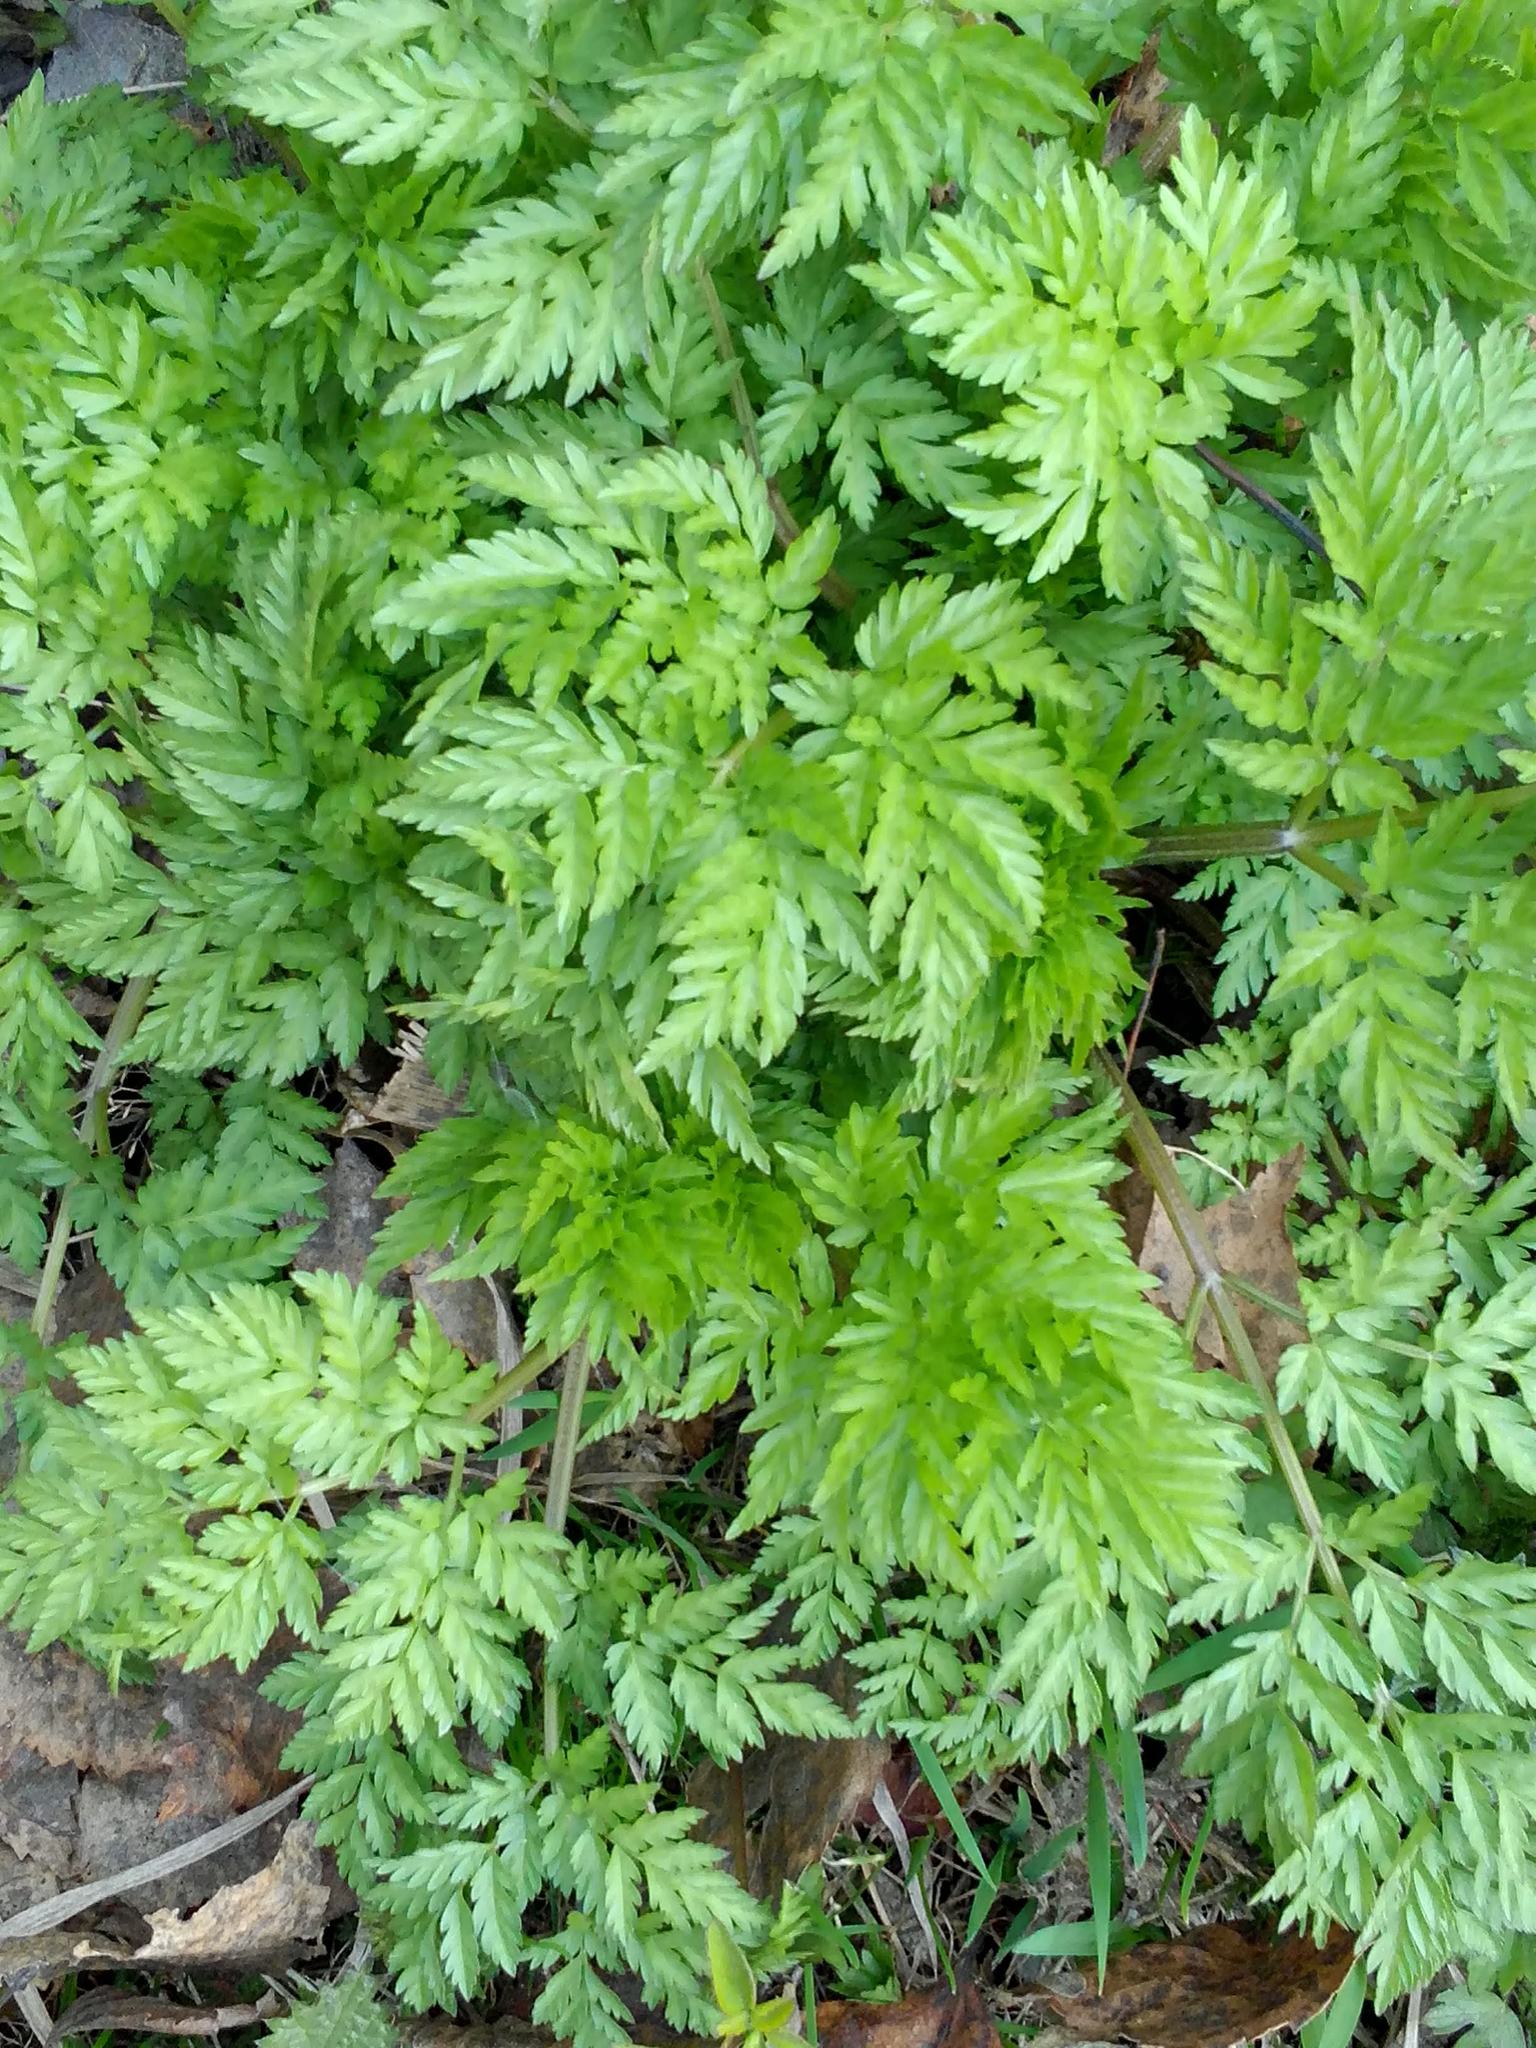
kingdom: Plantae
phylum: Tracheophyta
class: Magnoliopsida
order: Apiales
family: Apiaceae
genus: Anthriscus
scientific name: Anthriscus sylvestris
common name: Cow parsley
